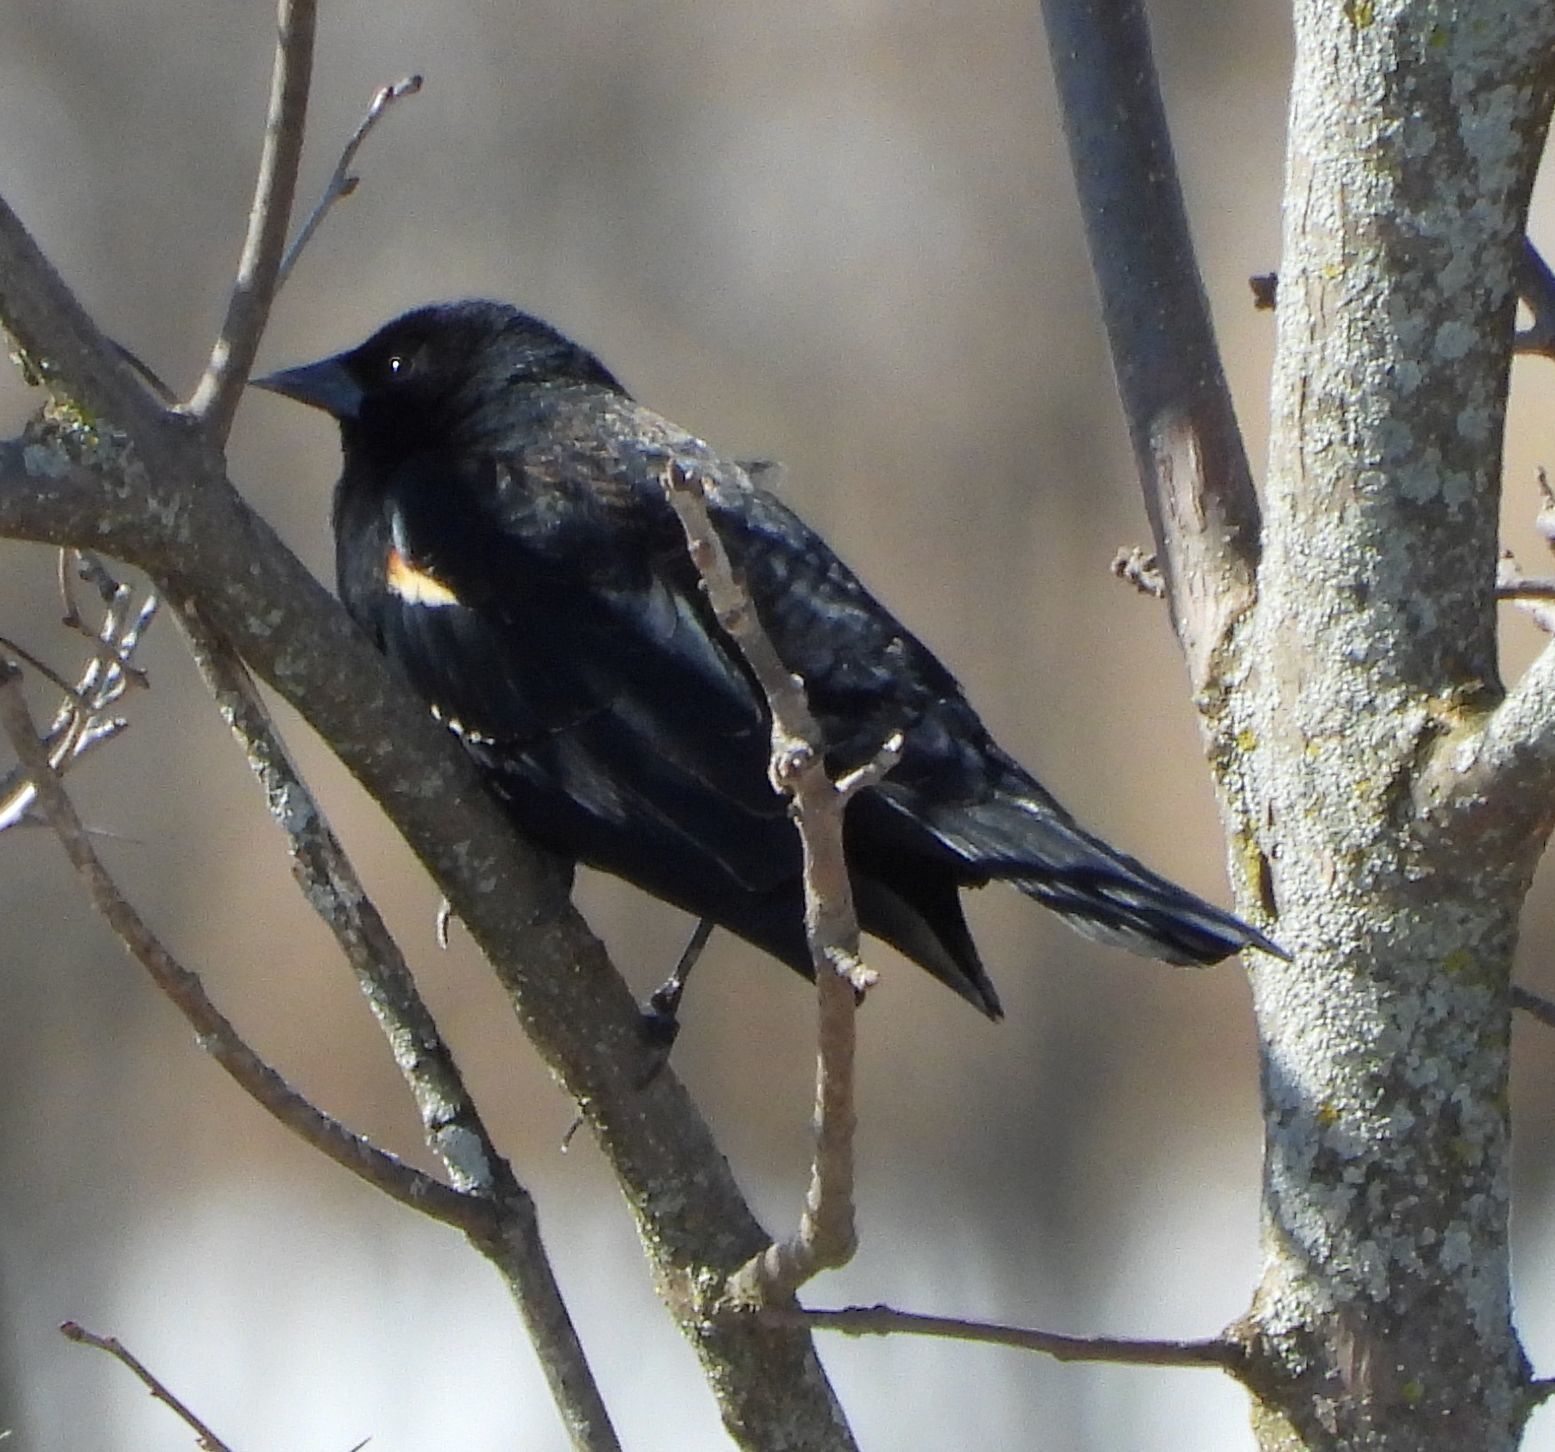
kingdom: Animalia
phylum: Chordata
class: Aves
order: Passeriformes
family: Icteridae
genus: Agelaius
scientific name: Agelaius phoeniceus
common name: Red-winged blackbird
